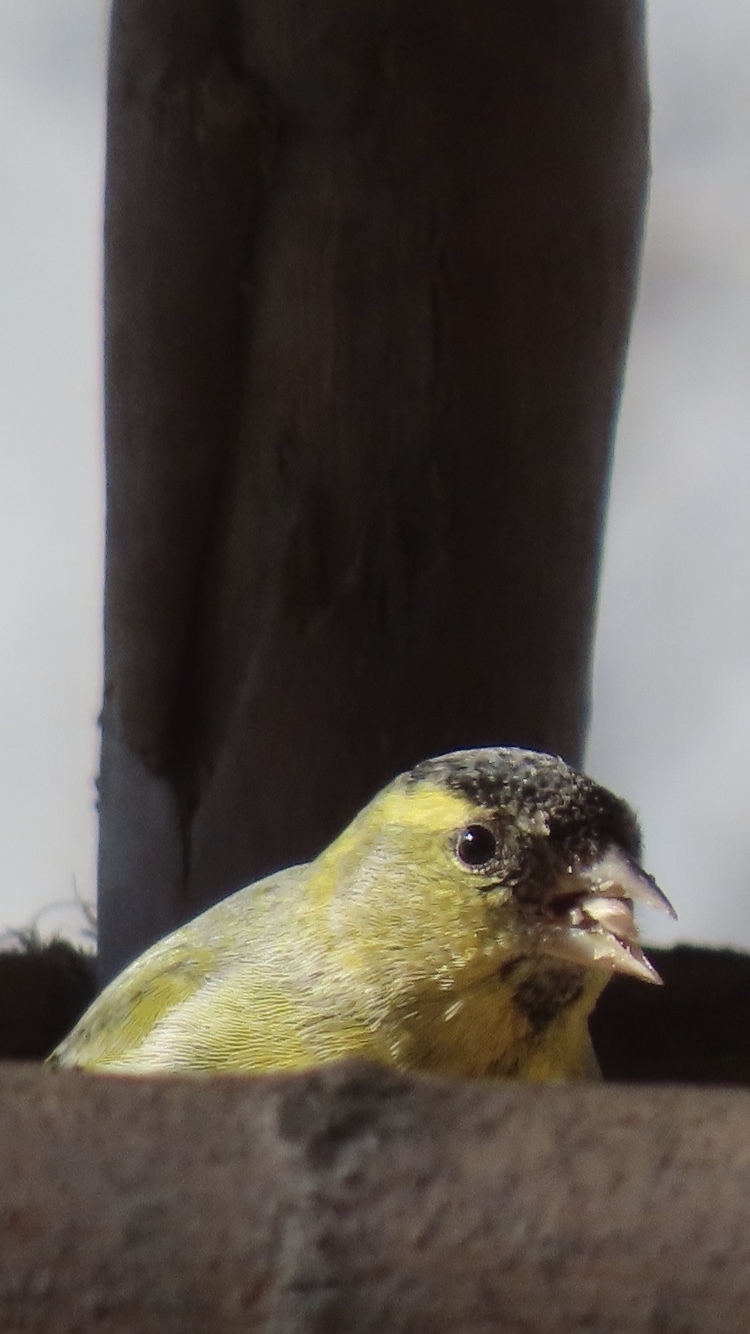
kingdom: Animalia
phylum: Chordata
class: Aves
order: Passeriformes
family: Fringillidae
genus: Spinus
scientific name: Spinus spinus
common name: Eurasian siskin
